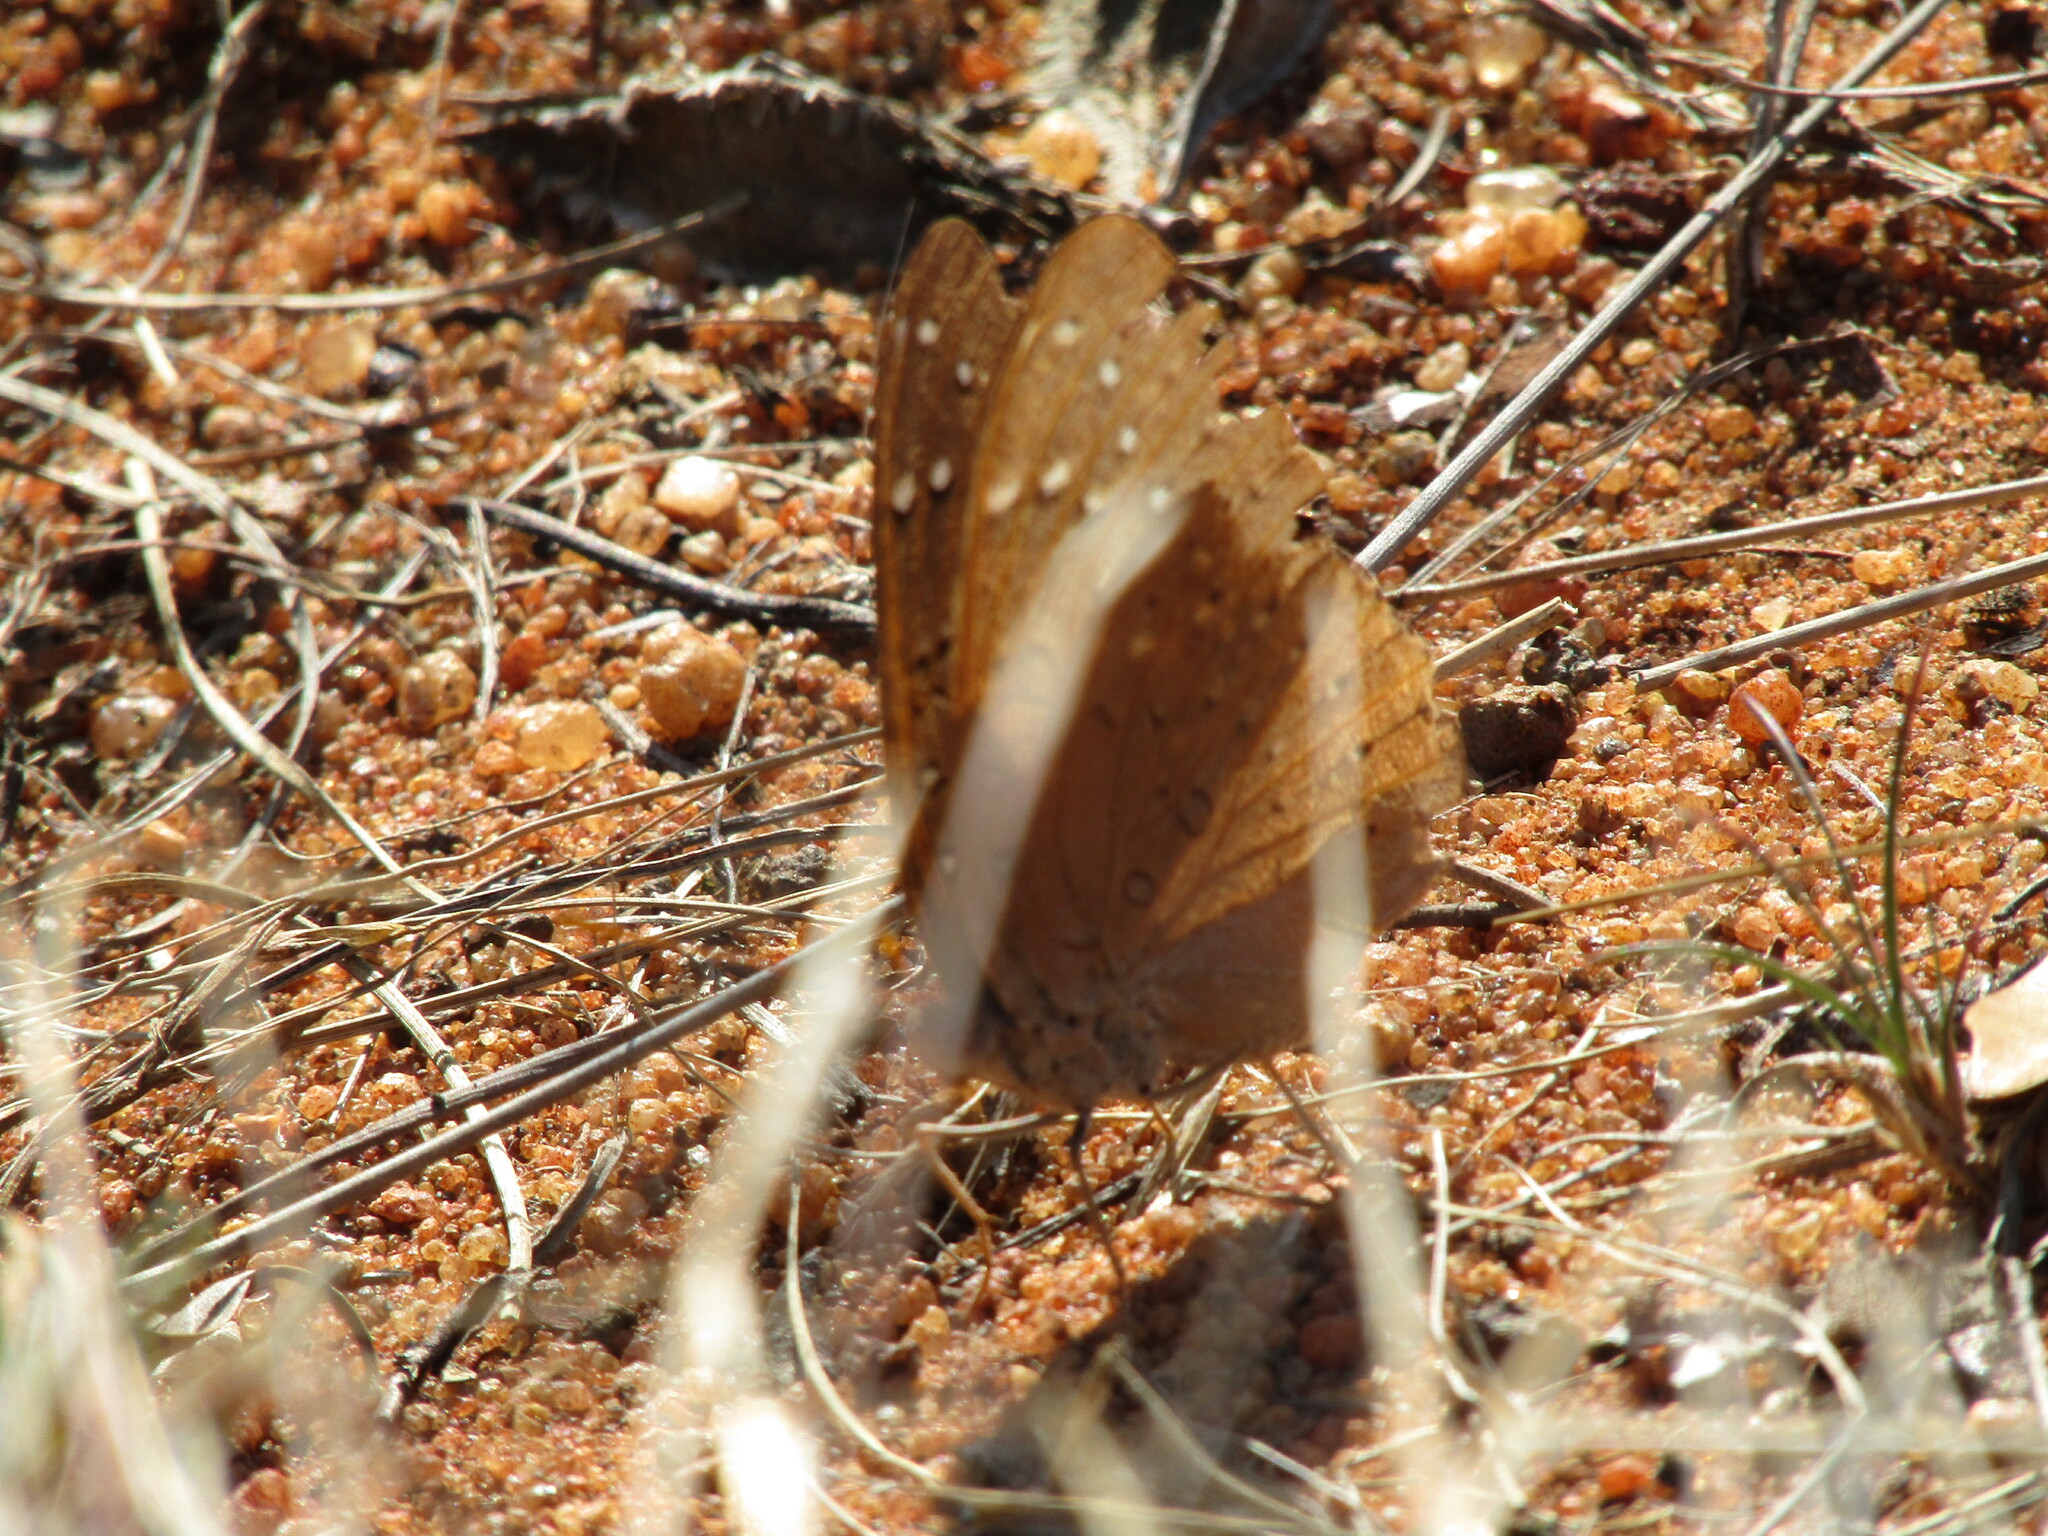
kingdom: Animalia
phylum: Arthropoda
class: Insecta
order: Lepidoptera
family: Nymphalidae
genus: Hamanumida
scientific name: Hamanumida daedalus
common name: Guinea-fowl butterfly
